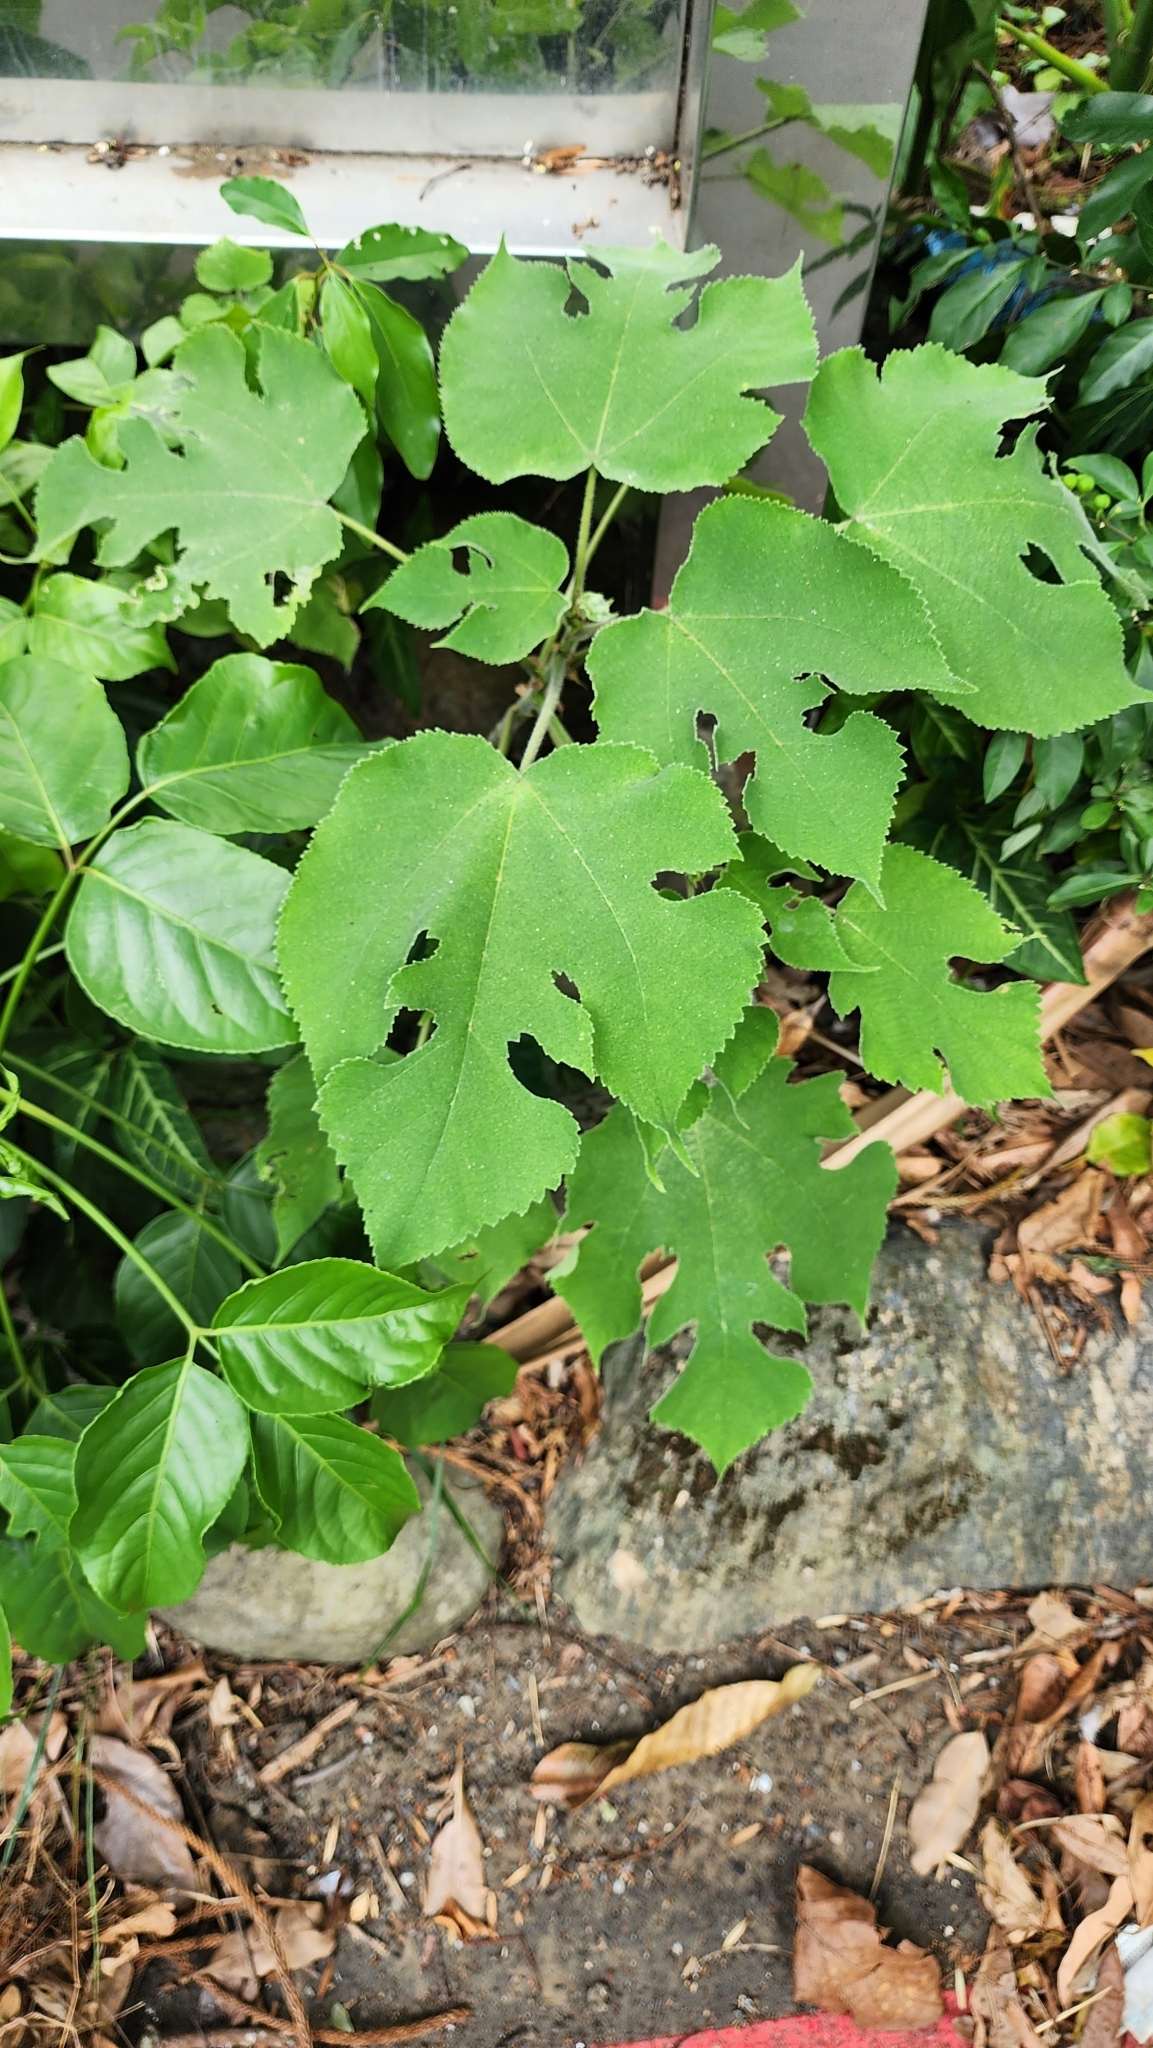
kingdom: Plantae
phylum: Tracheophyta
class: Magnoliopsida
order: Rosales
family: Moraceae
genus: Broussonetia
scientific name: Broussonetia papyrifera
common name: Paper mulberry
